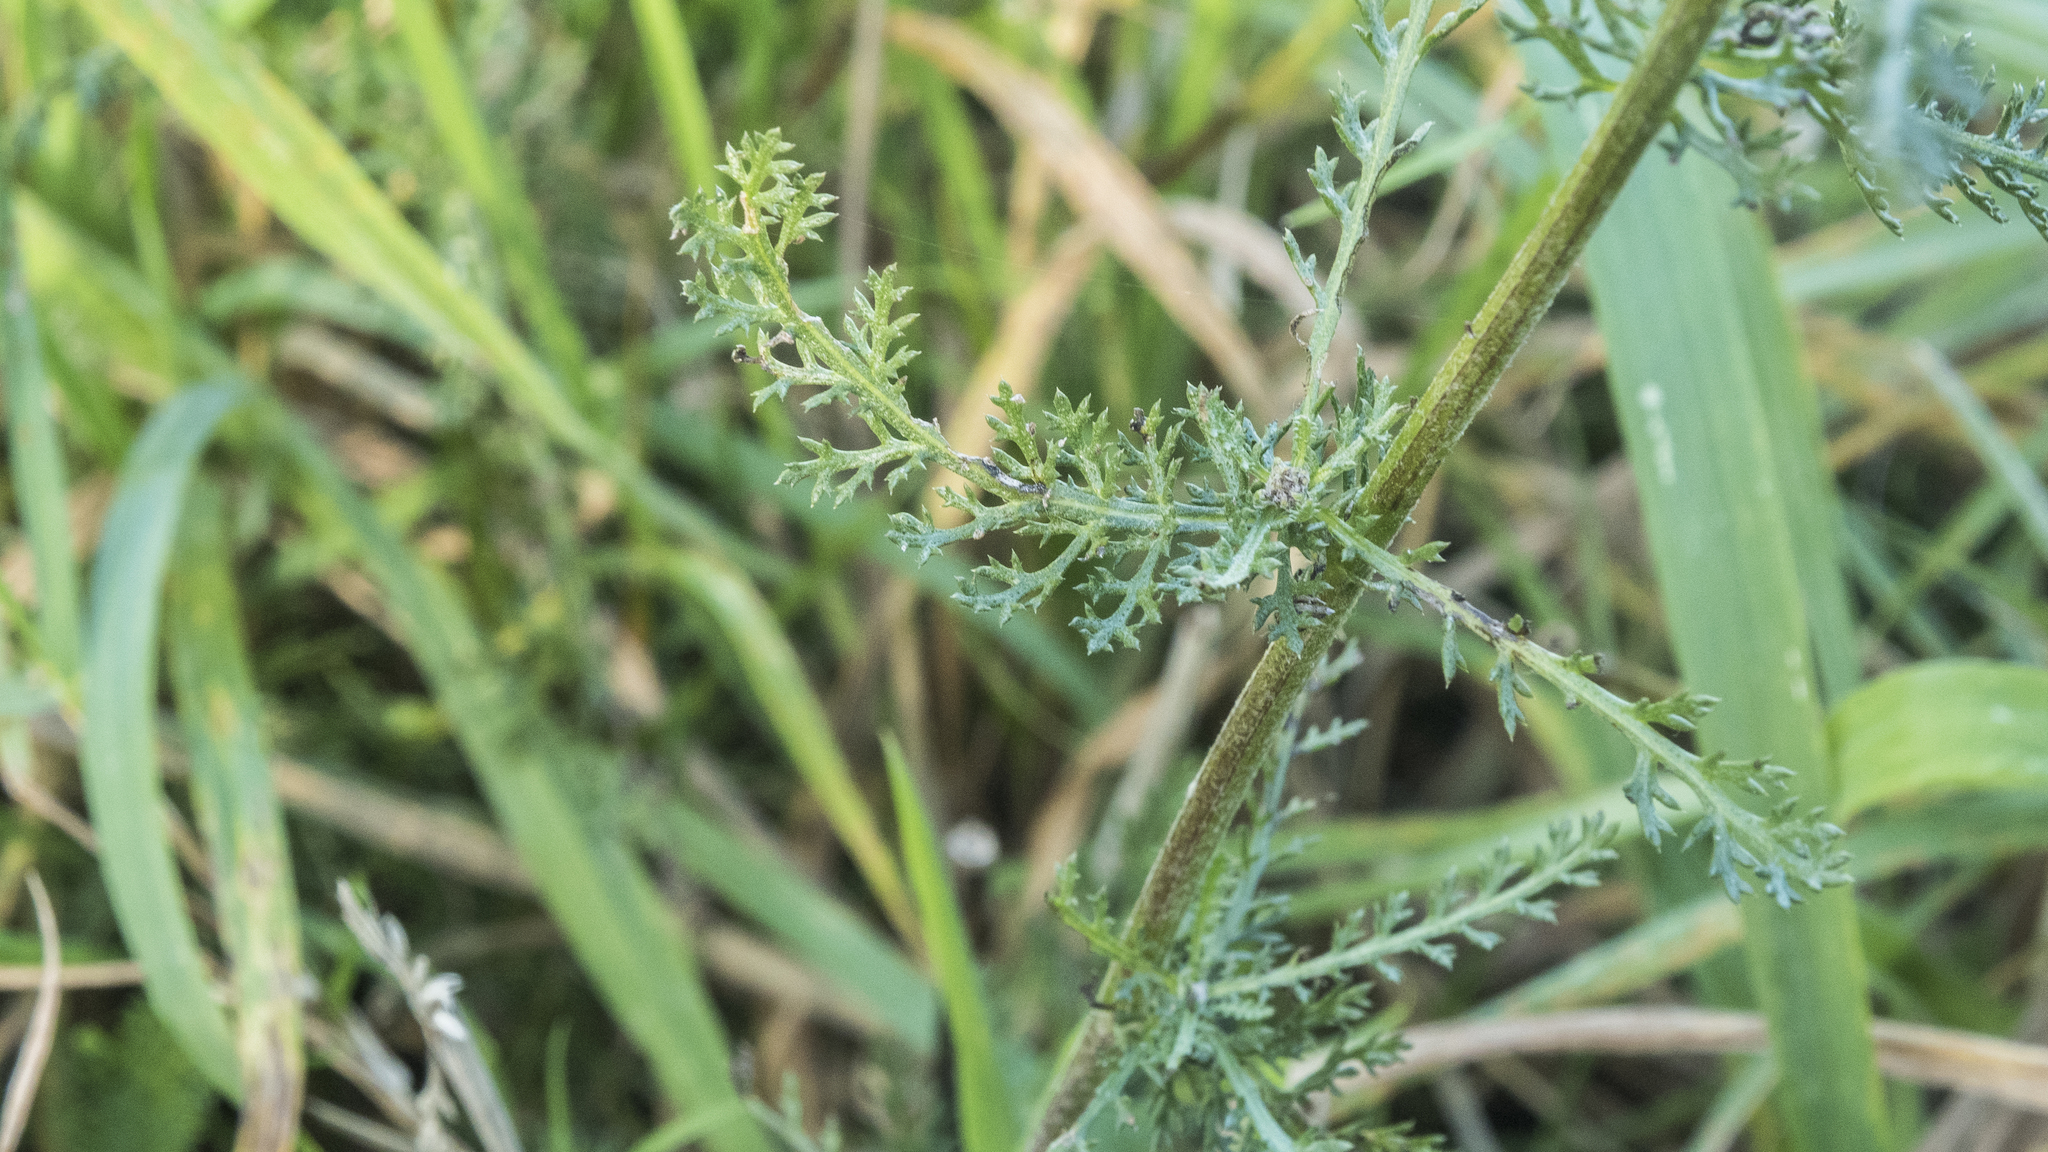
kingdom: Plantae
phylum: Tracheophyta
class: Magnoliopsida
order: Asterales
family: Asteraceae
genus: Achillea
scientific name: Achillea millefolium
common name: Yarrow
